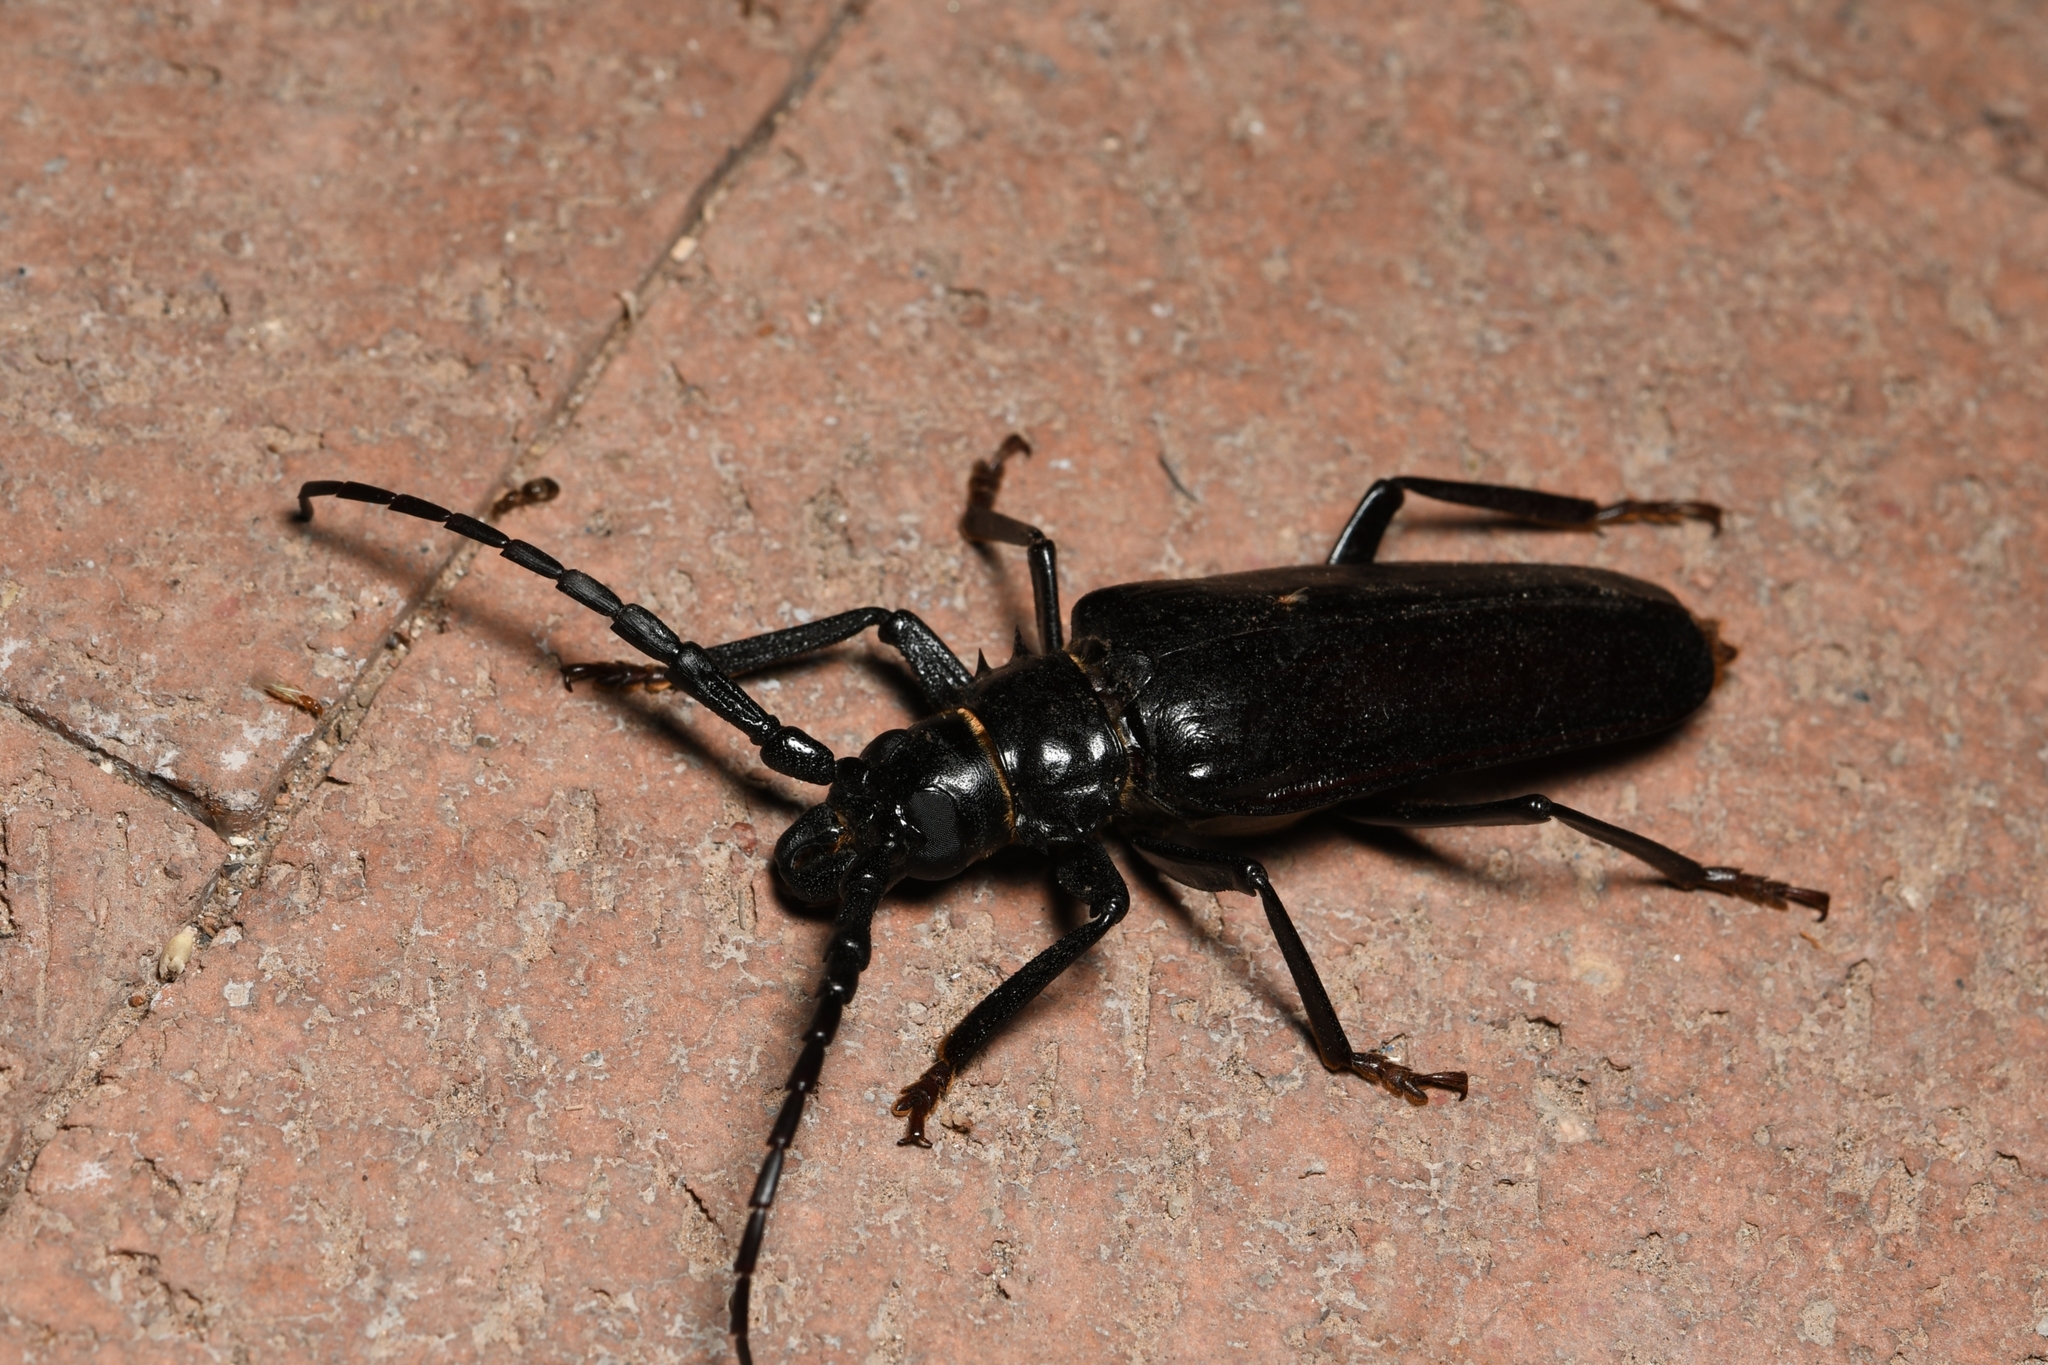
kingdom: Animalia
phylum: Arthropoda
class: Insecta
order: Coleoptera
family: Cerambycidae
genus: Derobrachus
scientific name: Derobrachus hovorei
